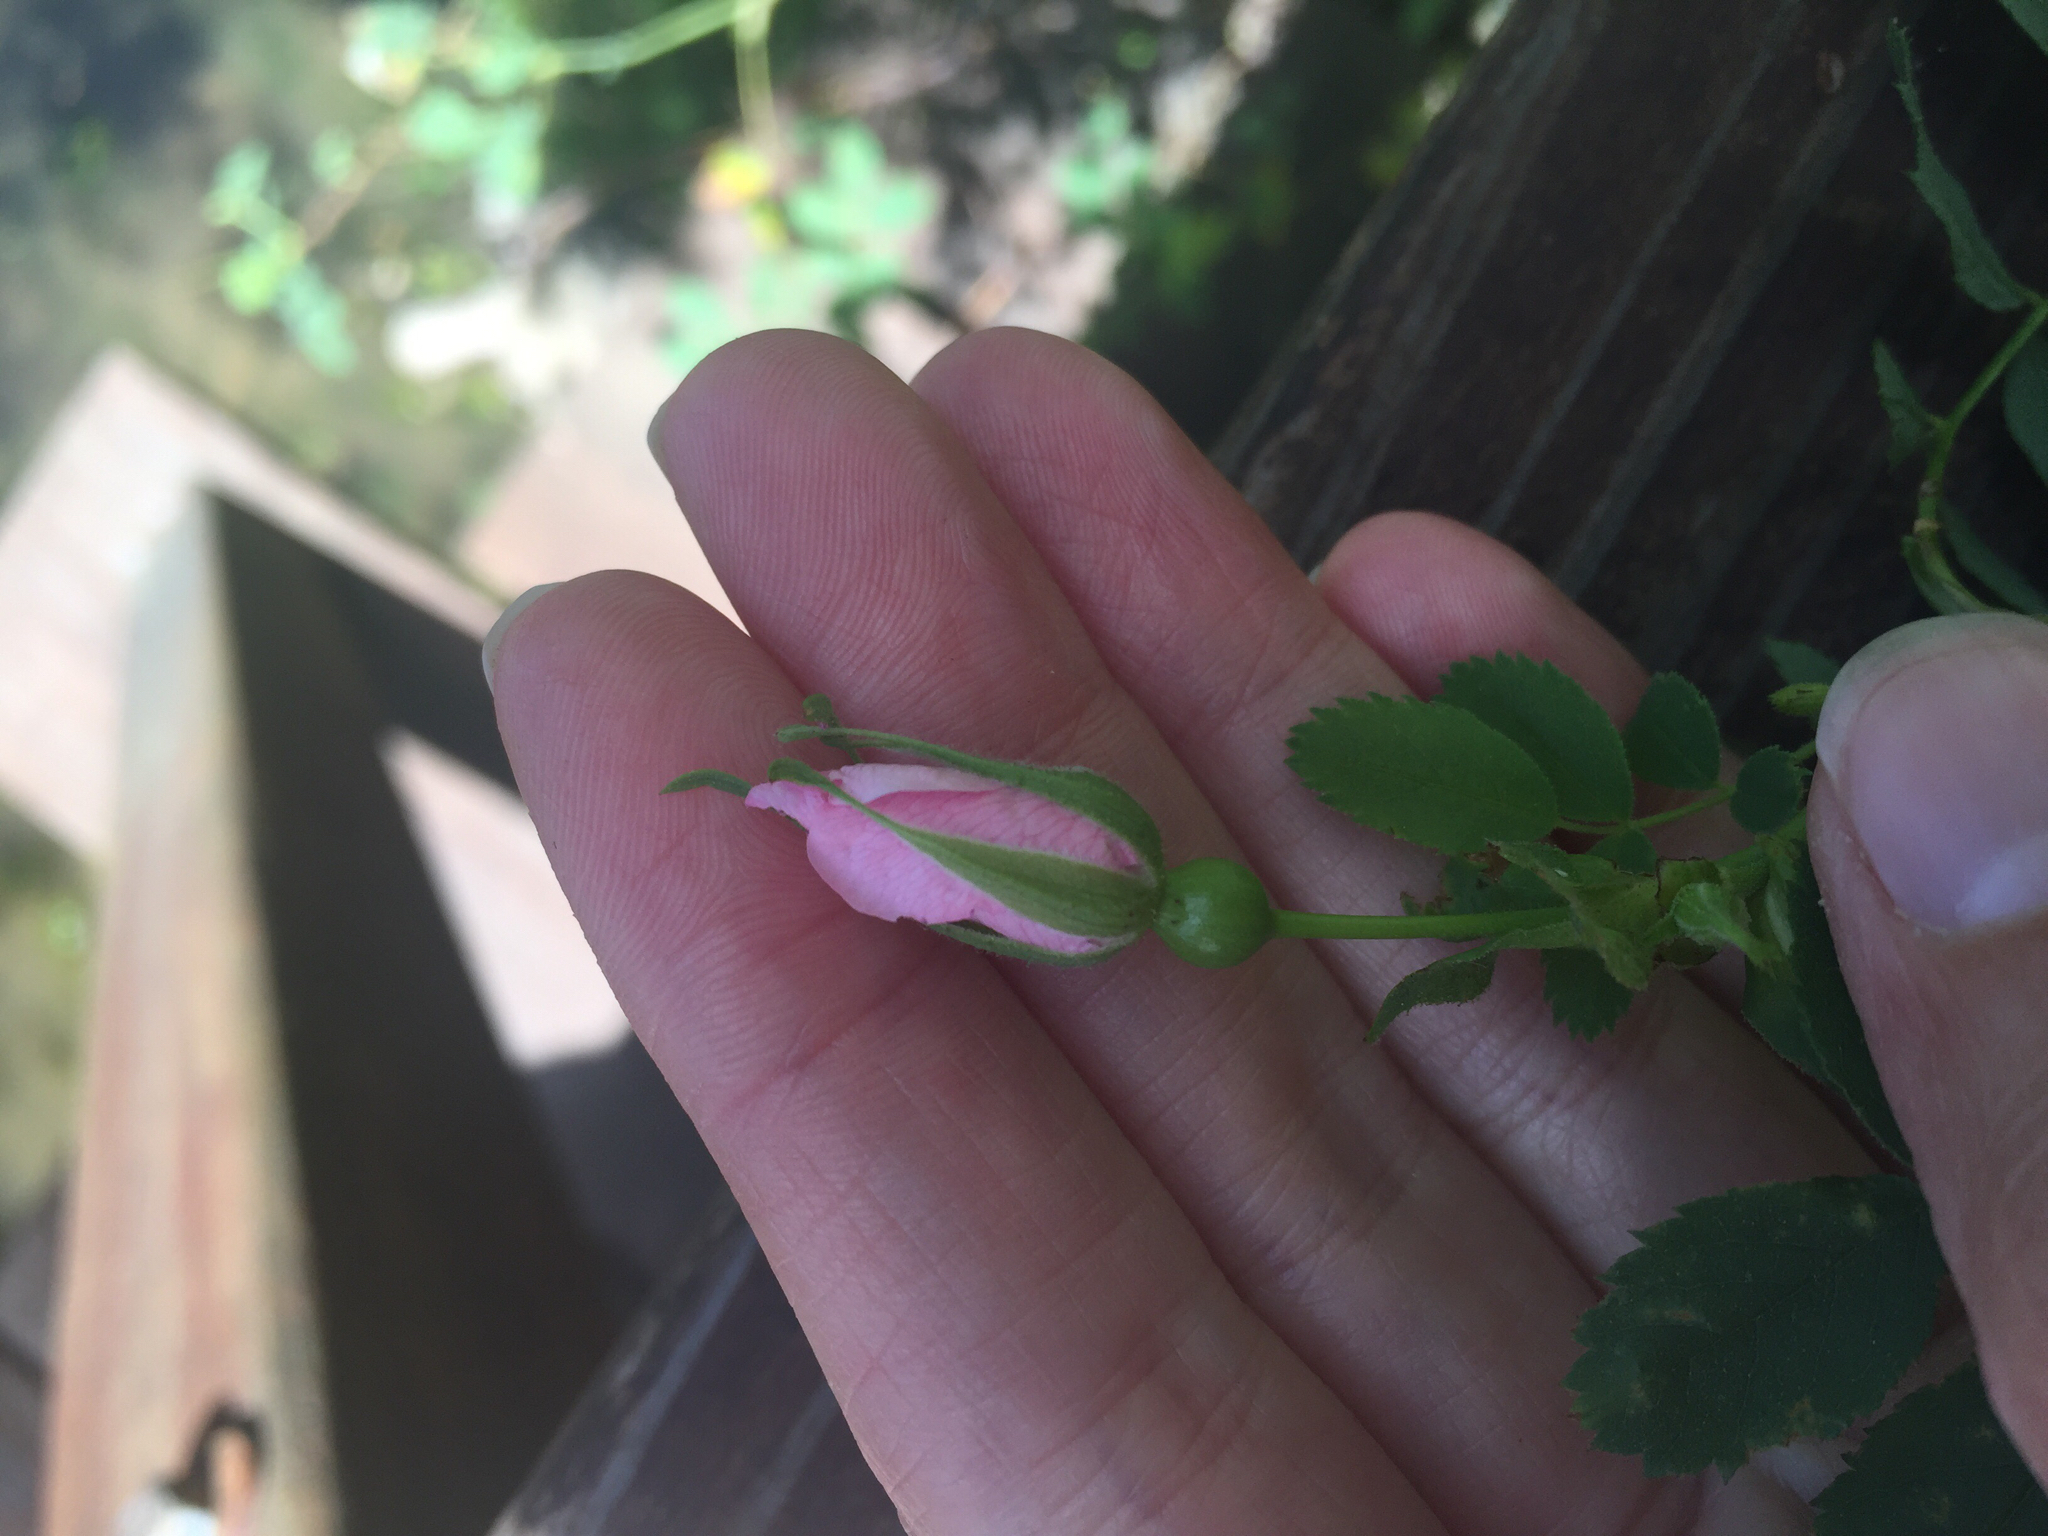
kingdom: Plantae
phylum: Tracheophyta
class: Magnoliopsida
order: Rosales
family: Rosaceae
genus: Rosa
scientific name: Rosa californica
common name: California rose
